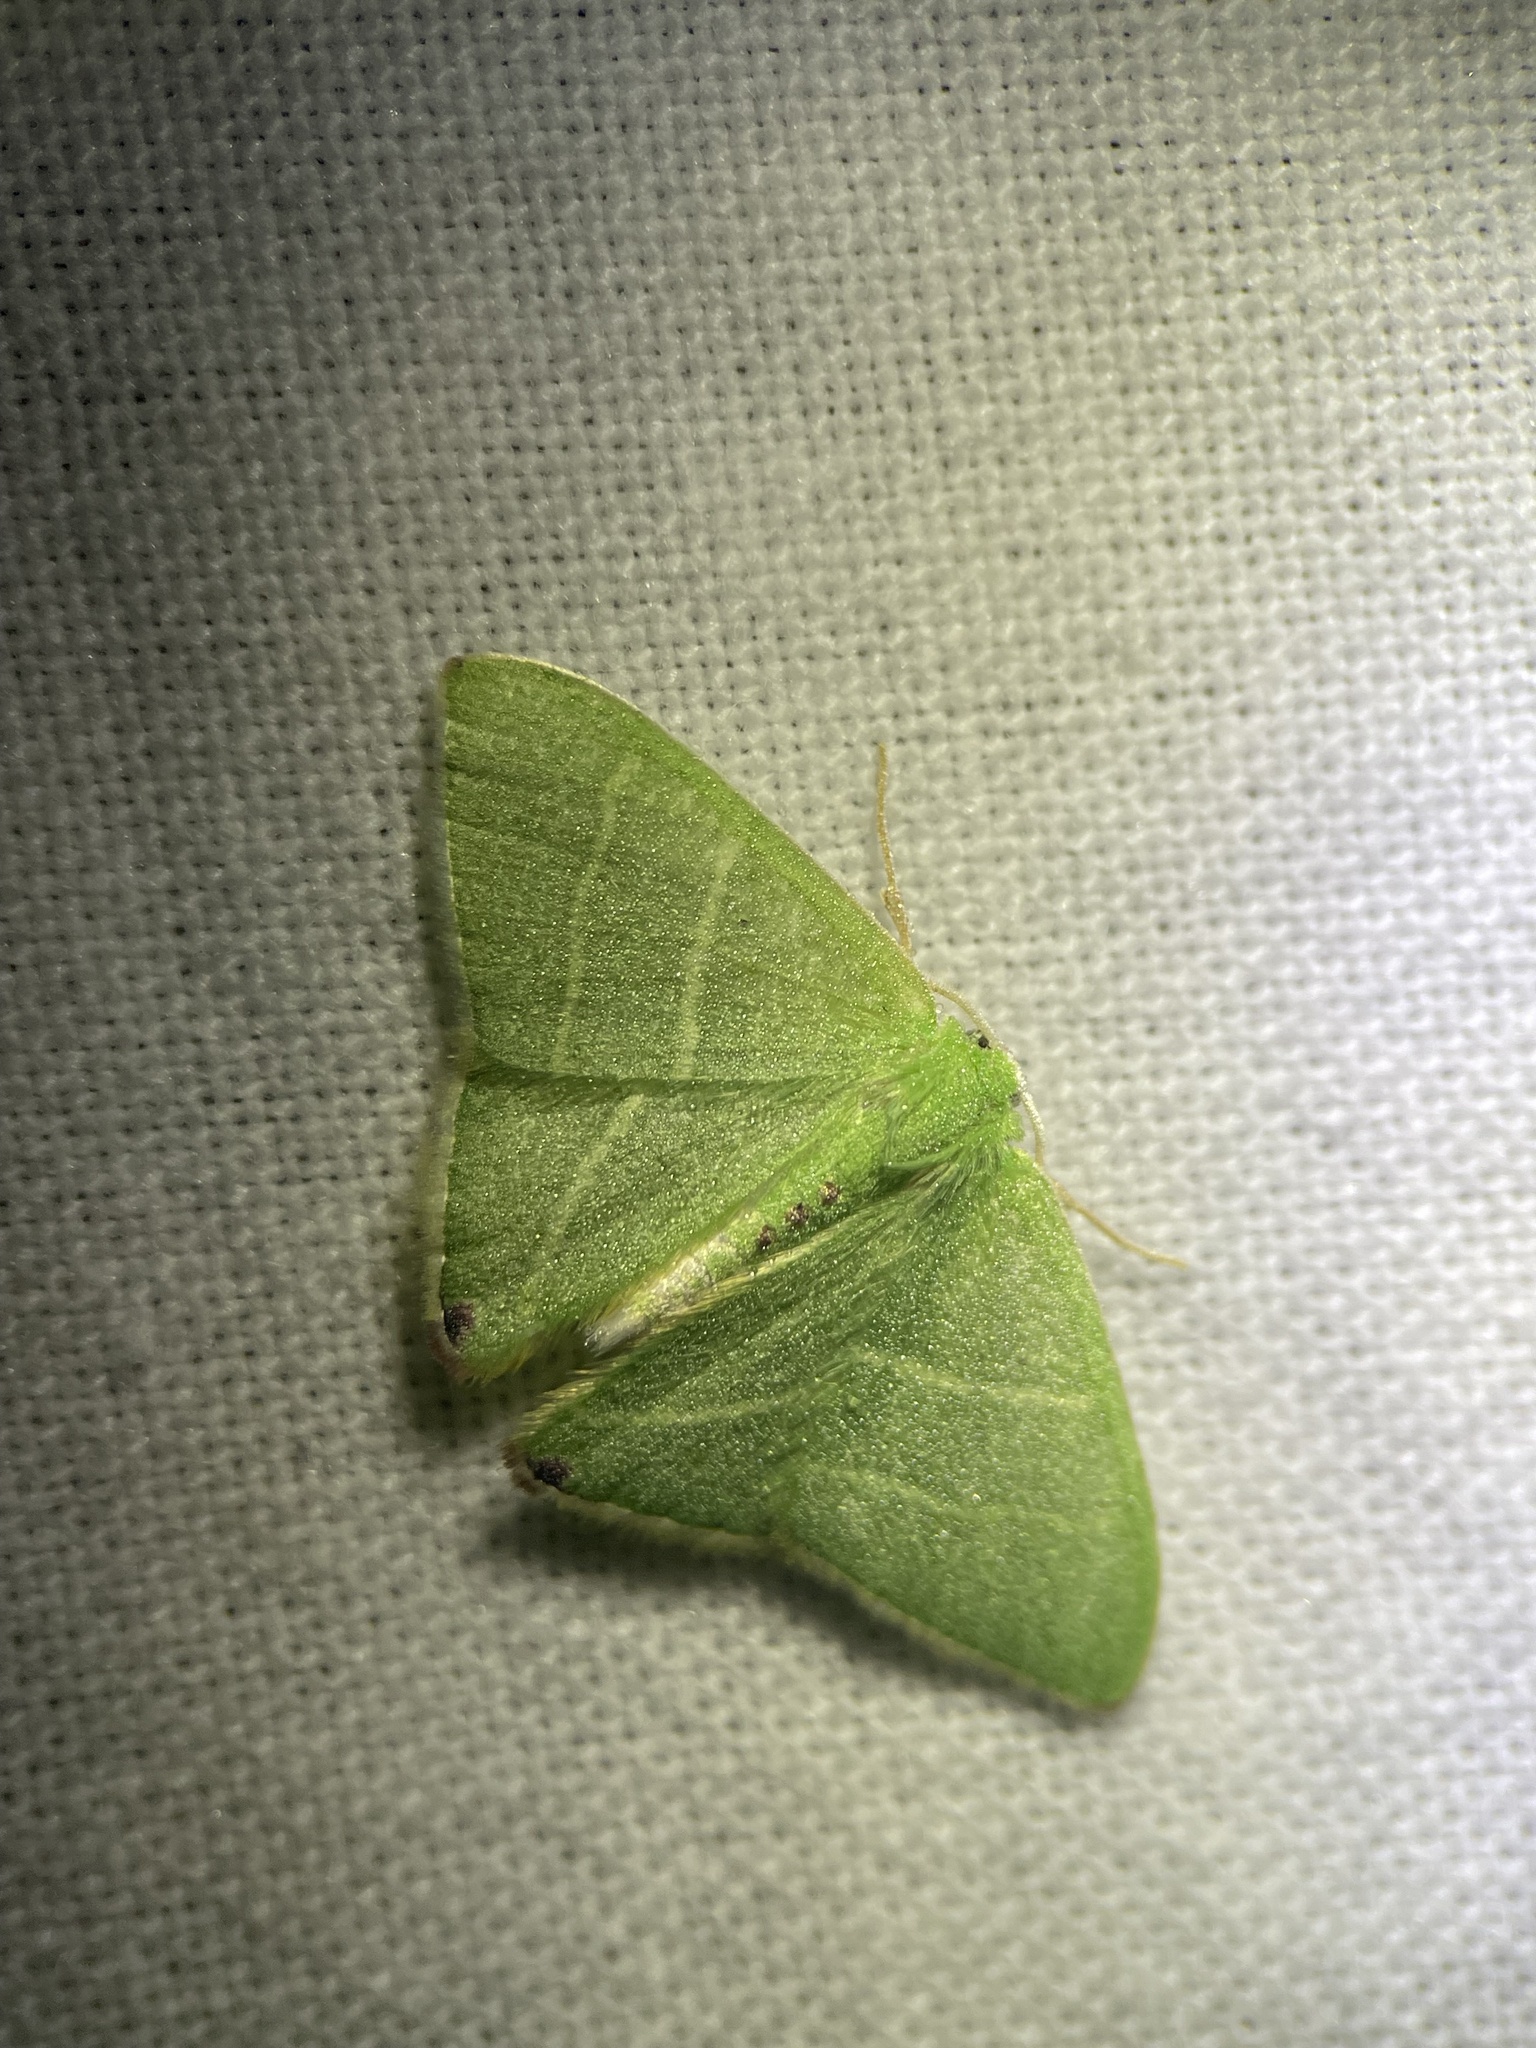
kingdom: Animalia
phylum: Arthropoda
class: Insecta
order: Lepidoptera
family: Geometridae
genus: Urolitha
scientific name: Urolitha bipunctifera
